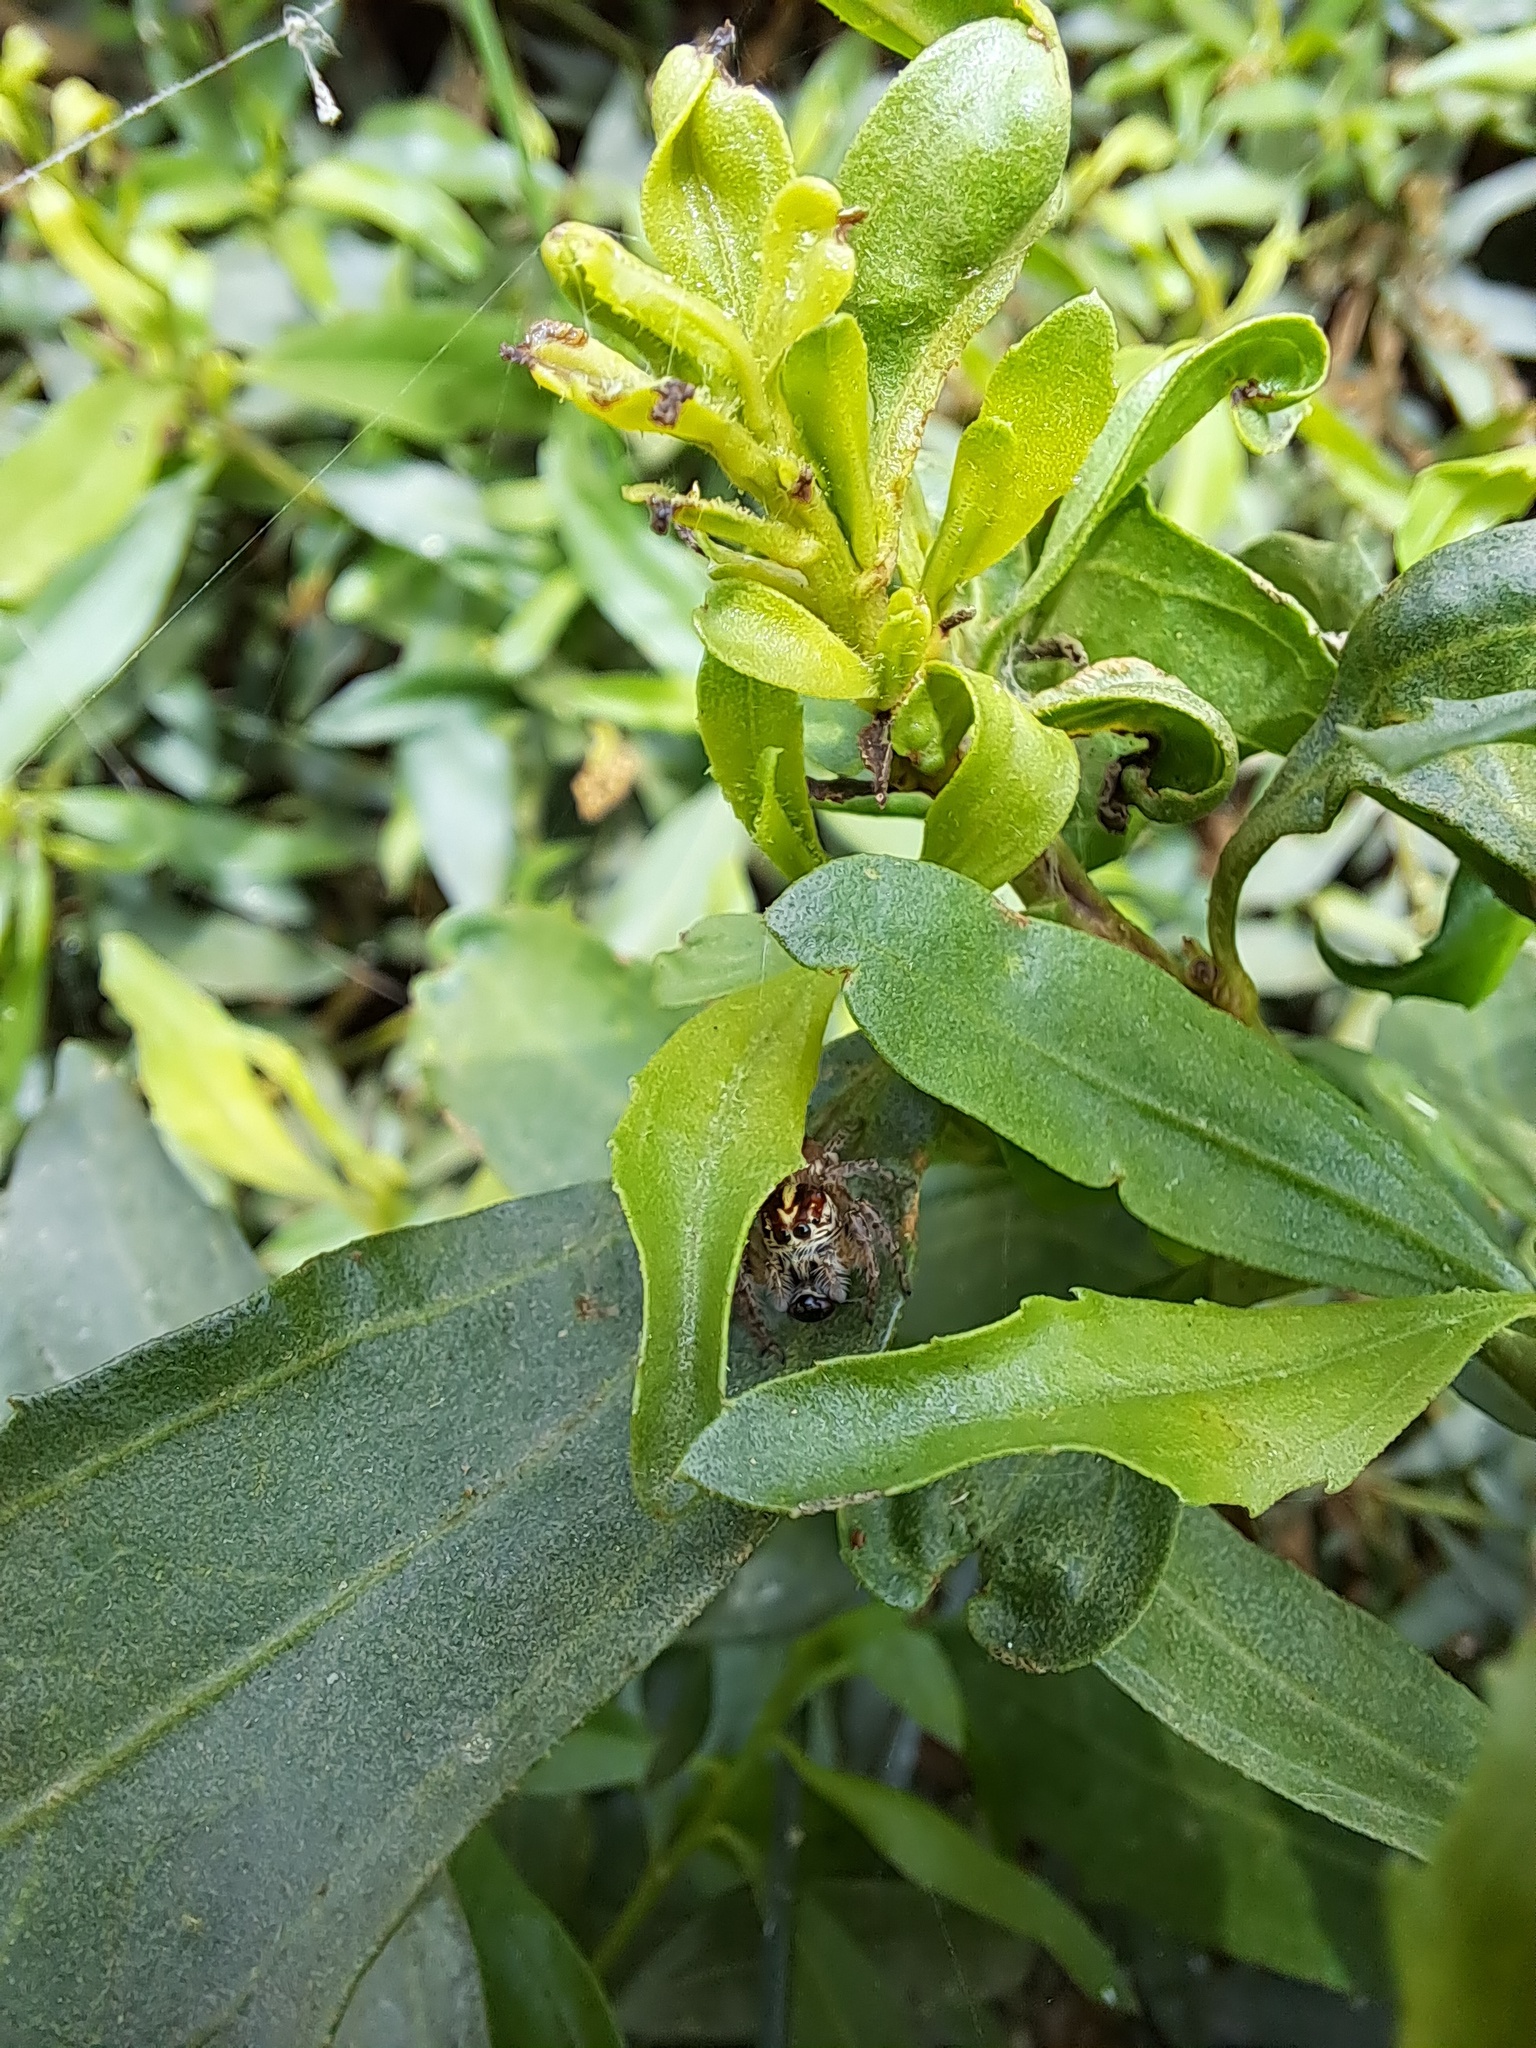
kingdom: Animalia
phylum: Arthropoda
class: Arachnida
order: Araneae
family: Salticidae
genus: Frigga
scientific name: Frigga crocuta
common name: Jumping spiders
